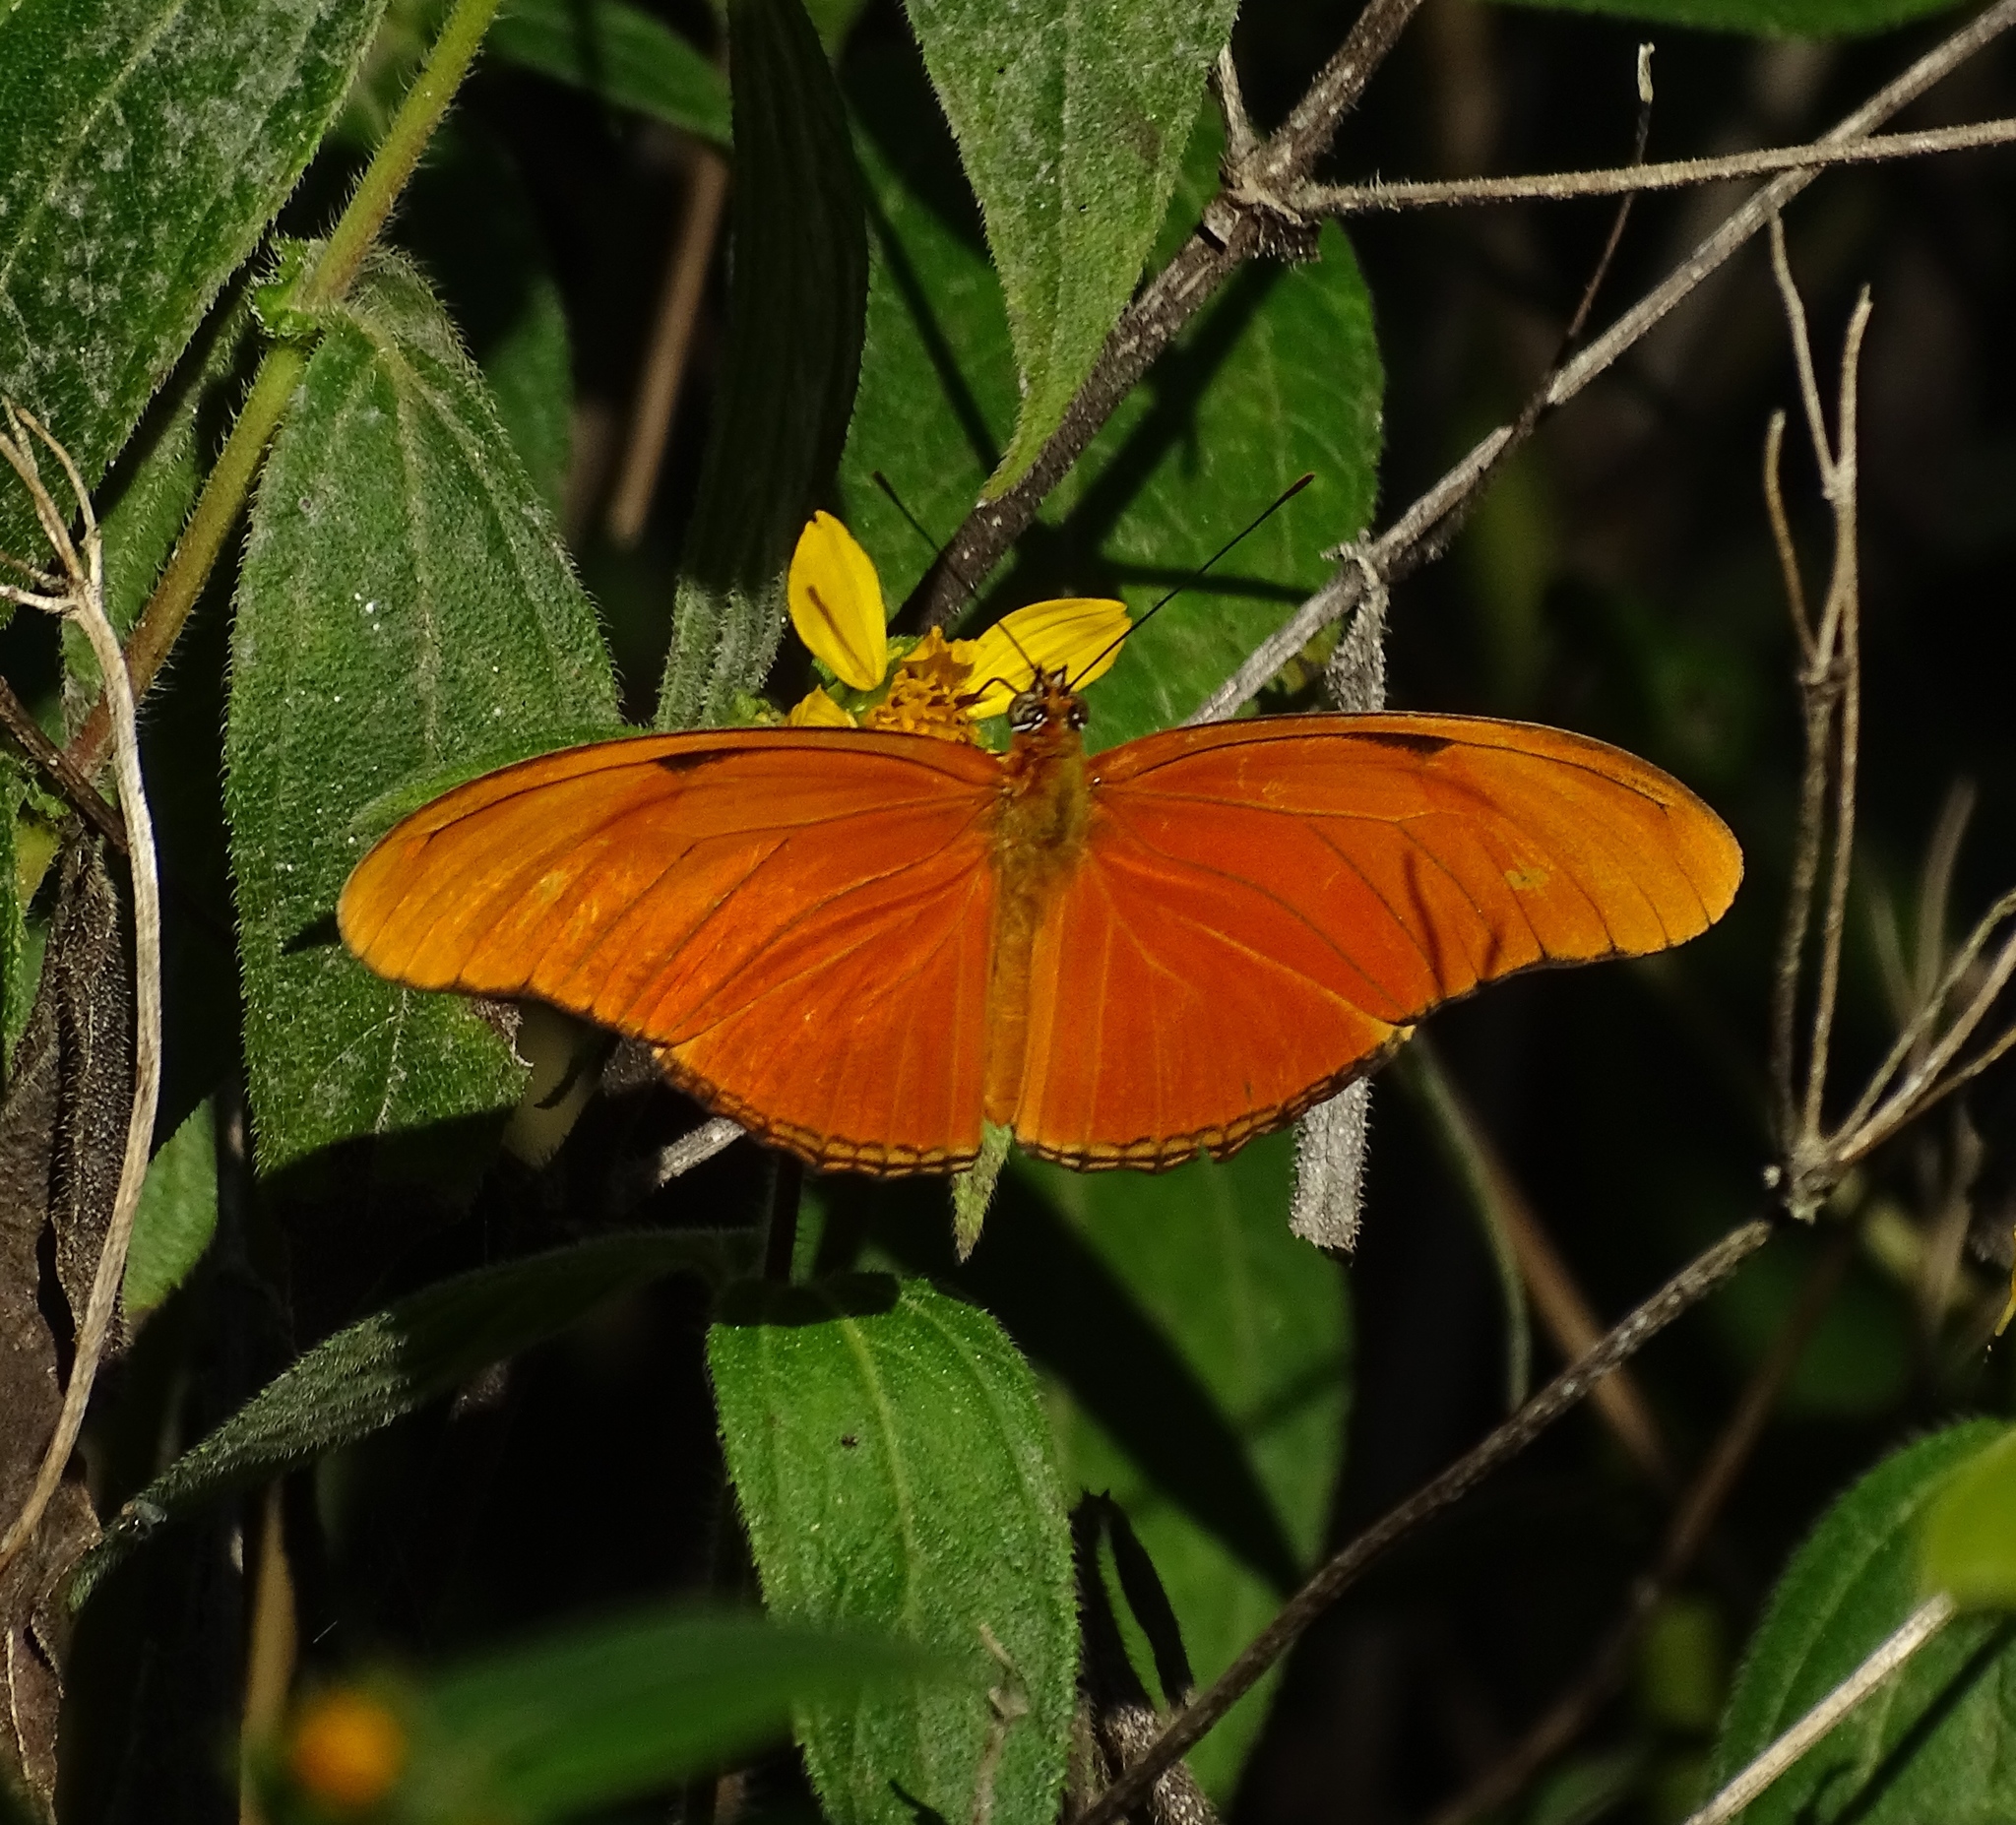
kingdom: Animalia
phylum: Arthropoda
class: Insecta
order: Lepidoptera
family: Nymphalidae
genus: Dryas
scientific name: Dryas iulia
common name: Flambeau
